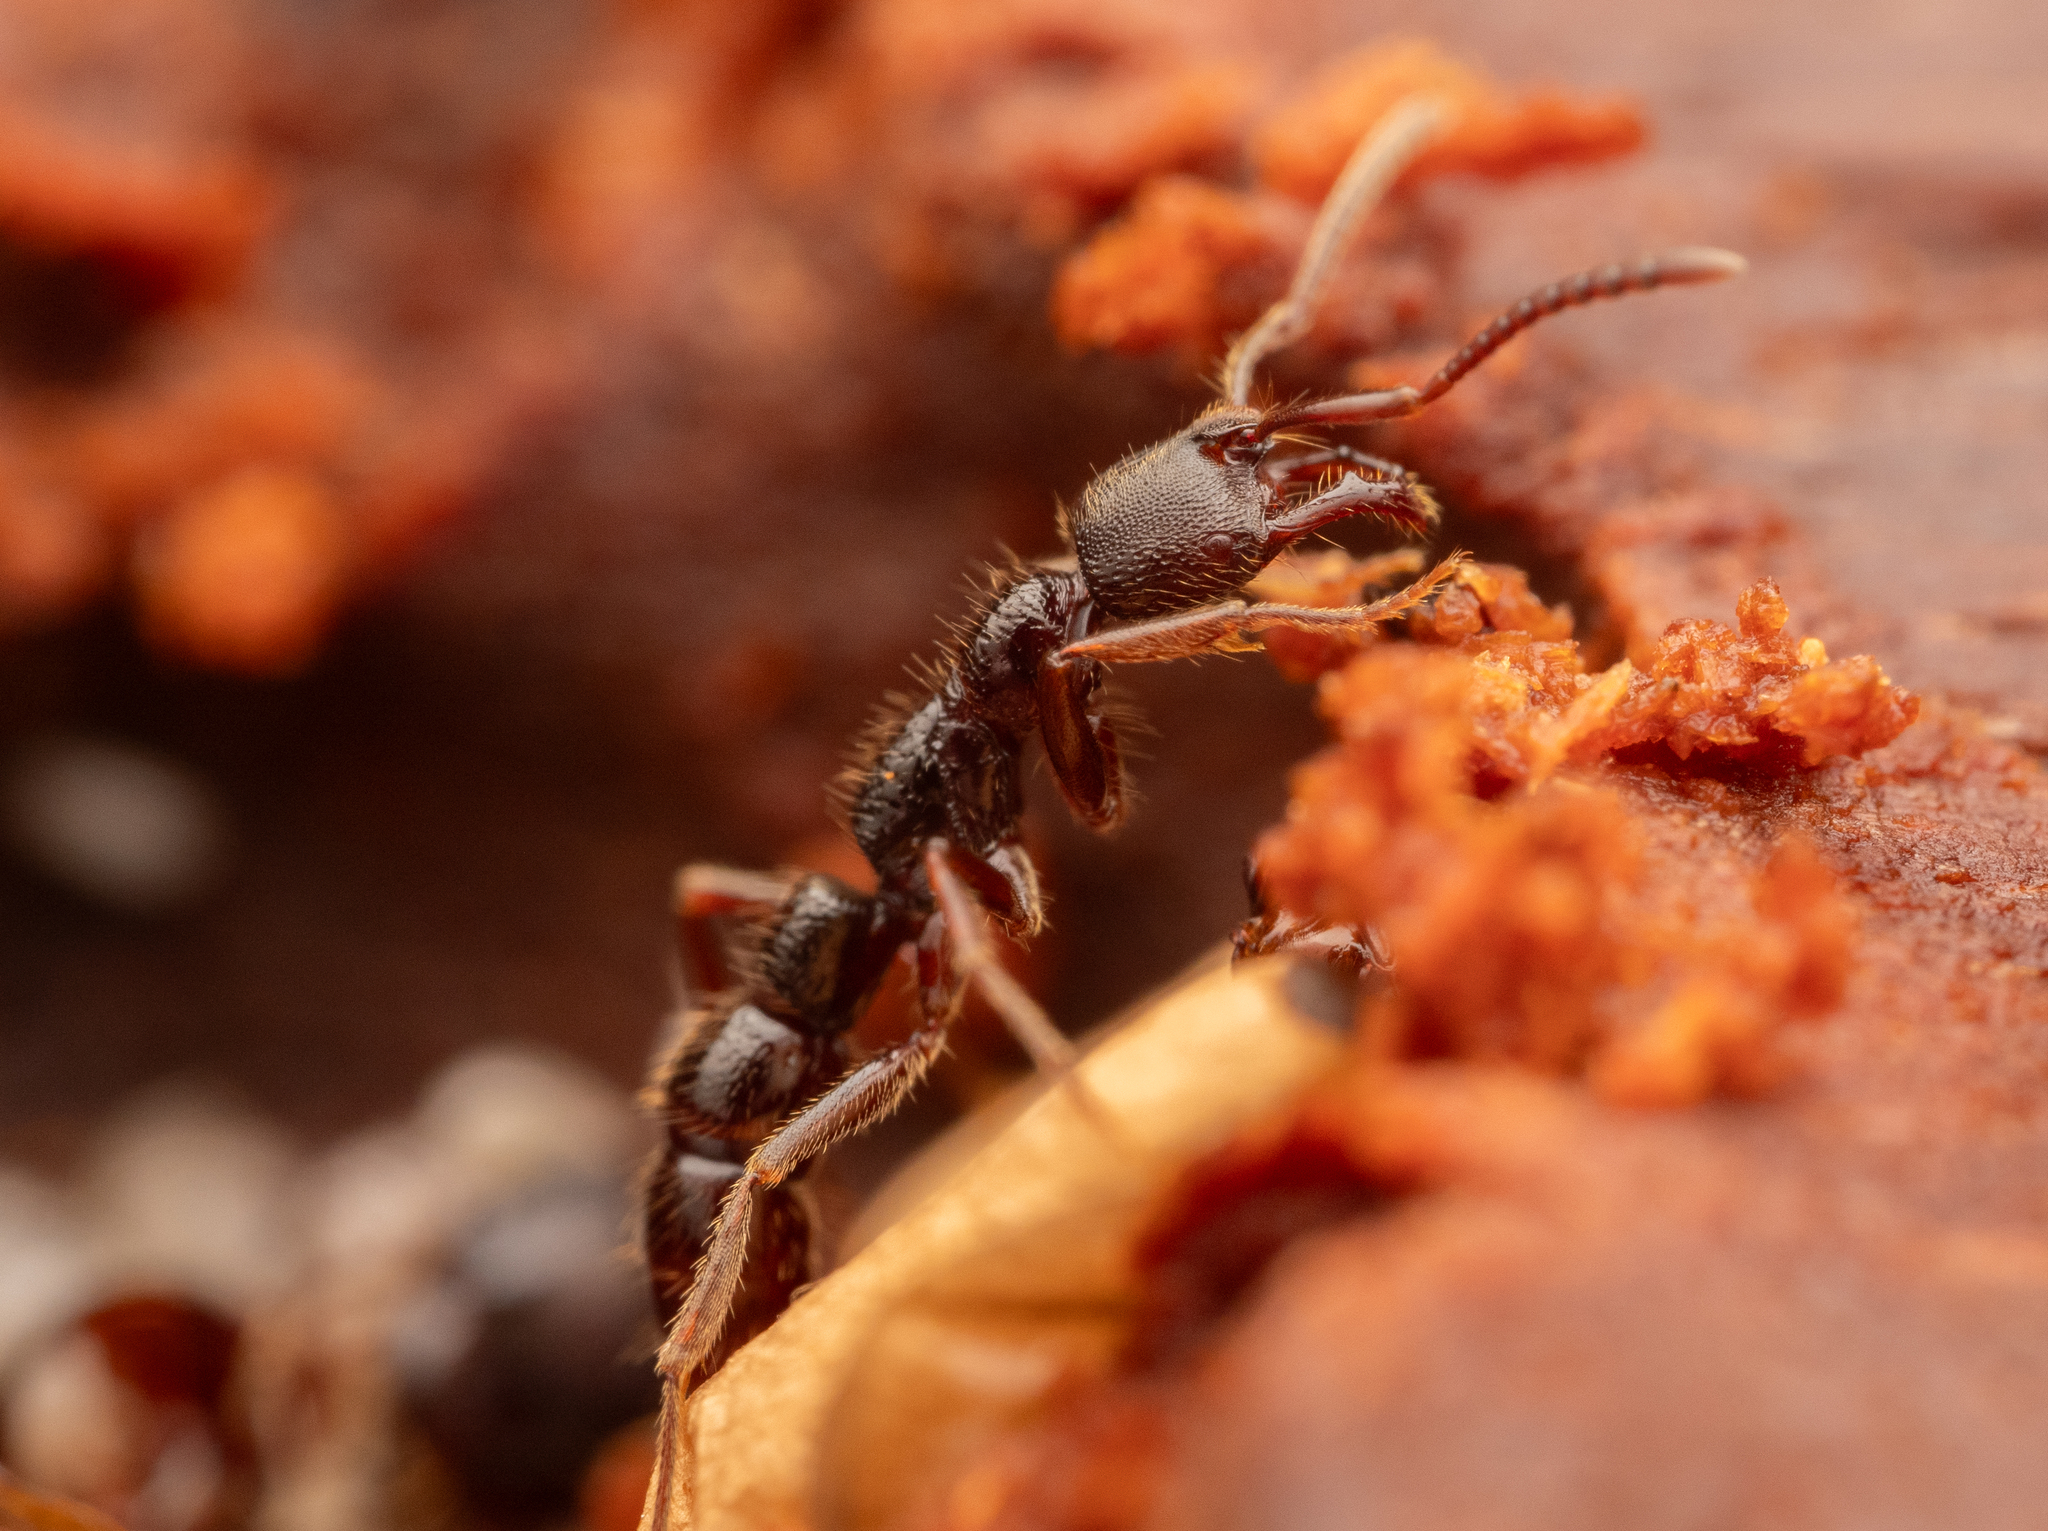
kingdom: Animalia
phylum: Arthropoda
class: Insecta
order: Hymenoptera
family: Formicidae
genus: Myopias
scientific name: Myopias cribriceps
